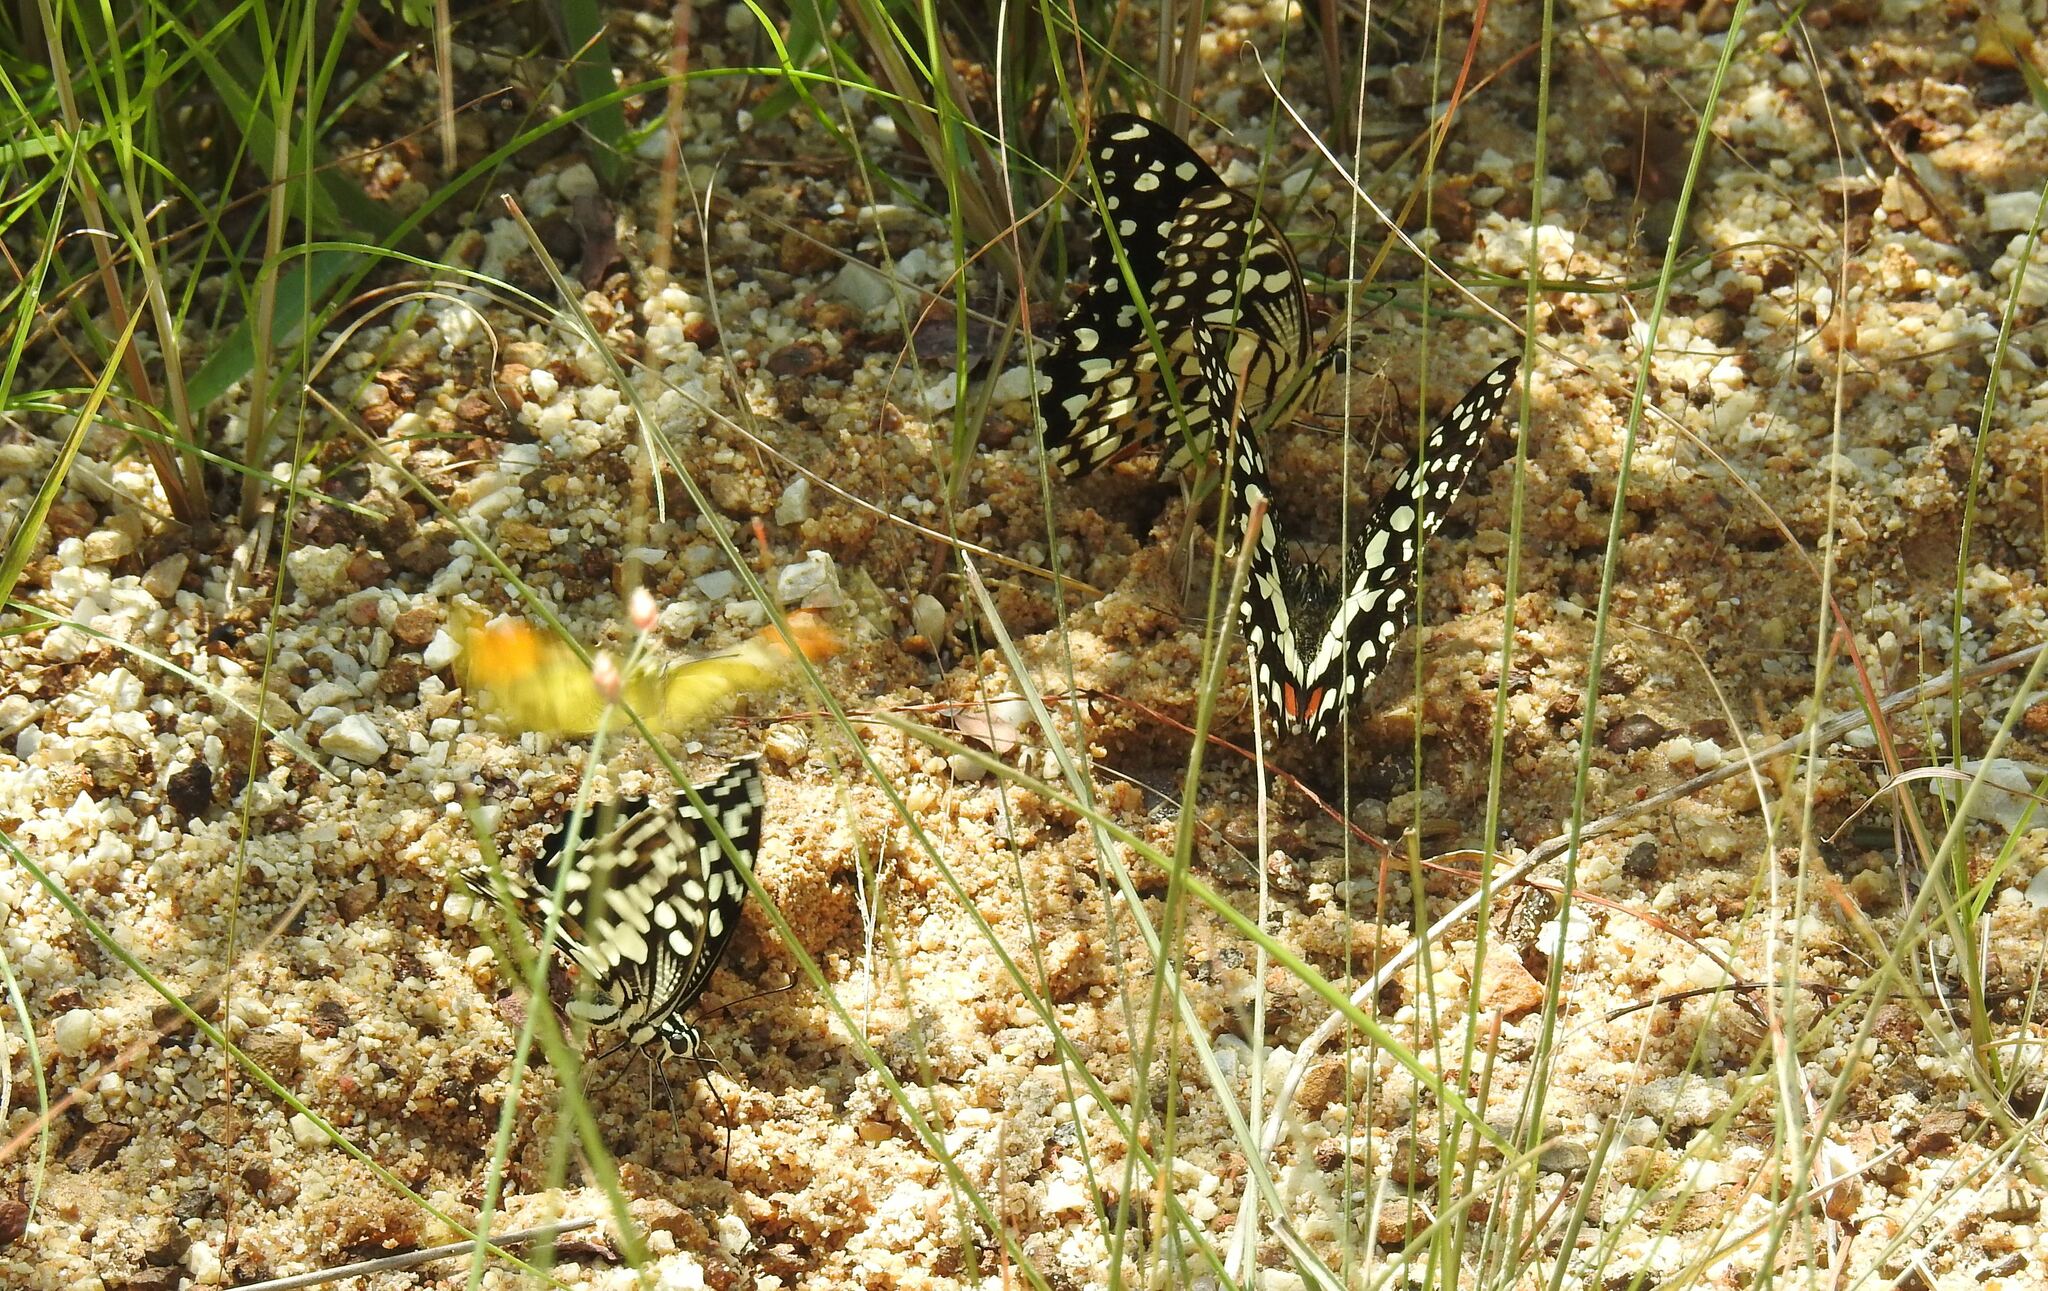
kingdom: Animalia
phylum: Arthropoda
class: Insecta
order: Lepidoptera
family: Papilionidae
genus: Papilio
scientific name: Papilio demoleus
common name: Lime butterfly
